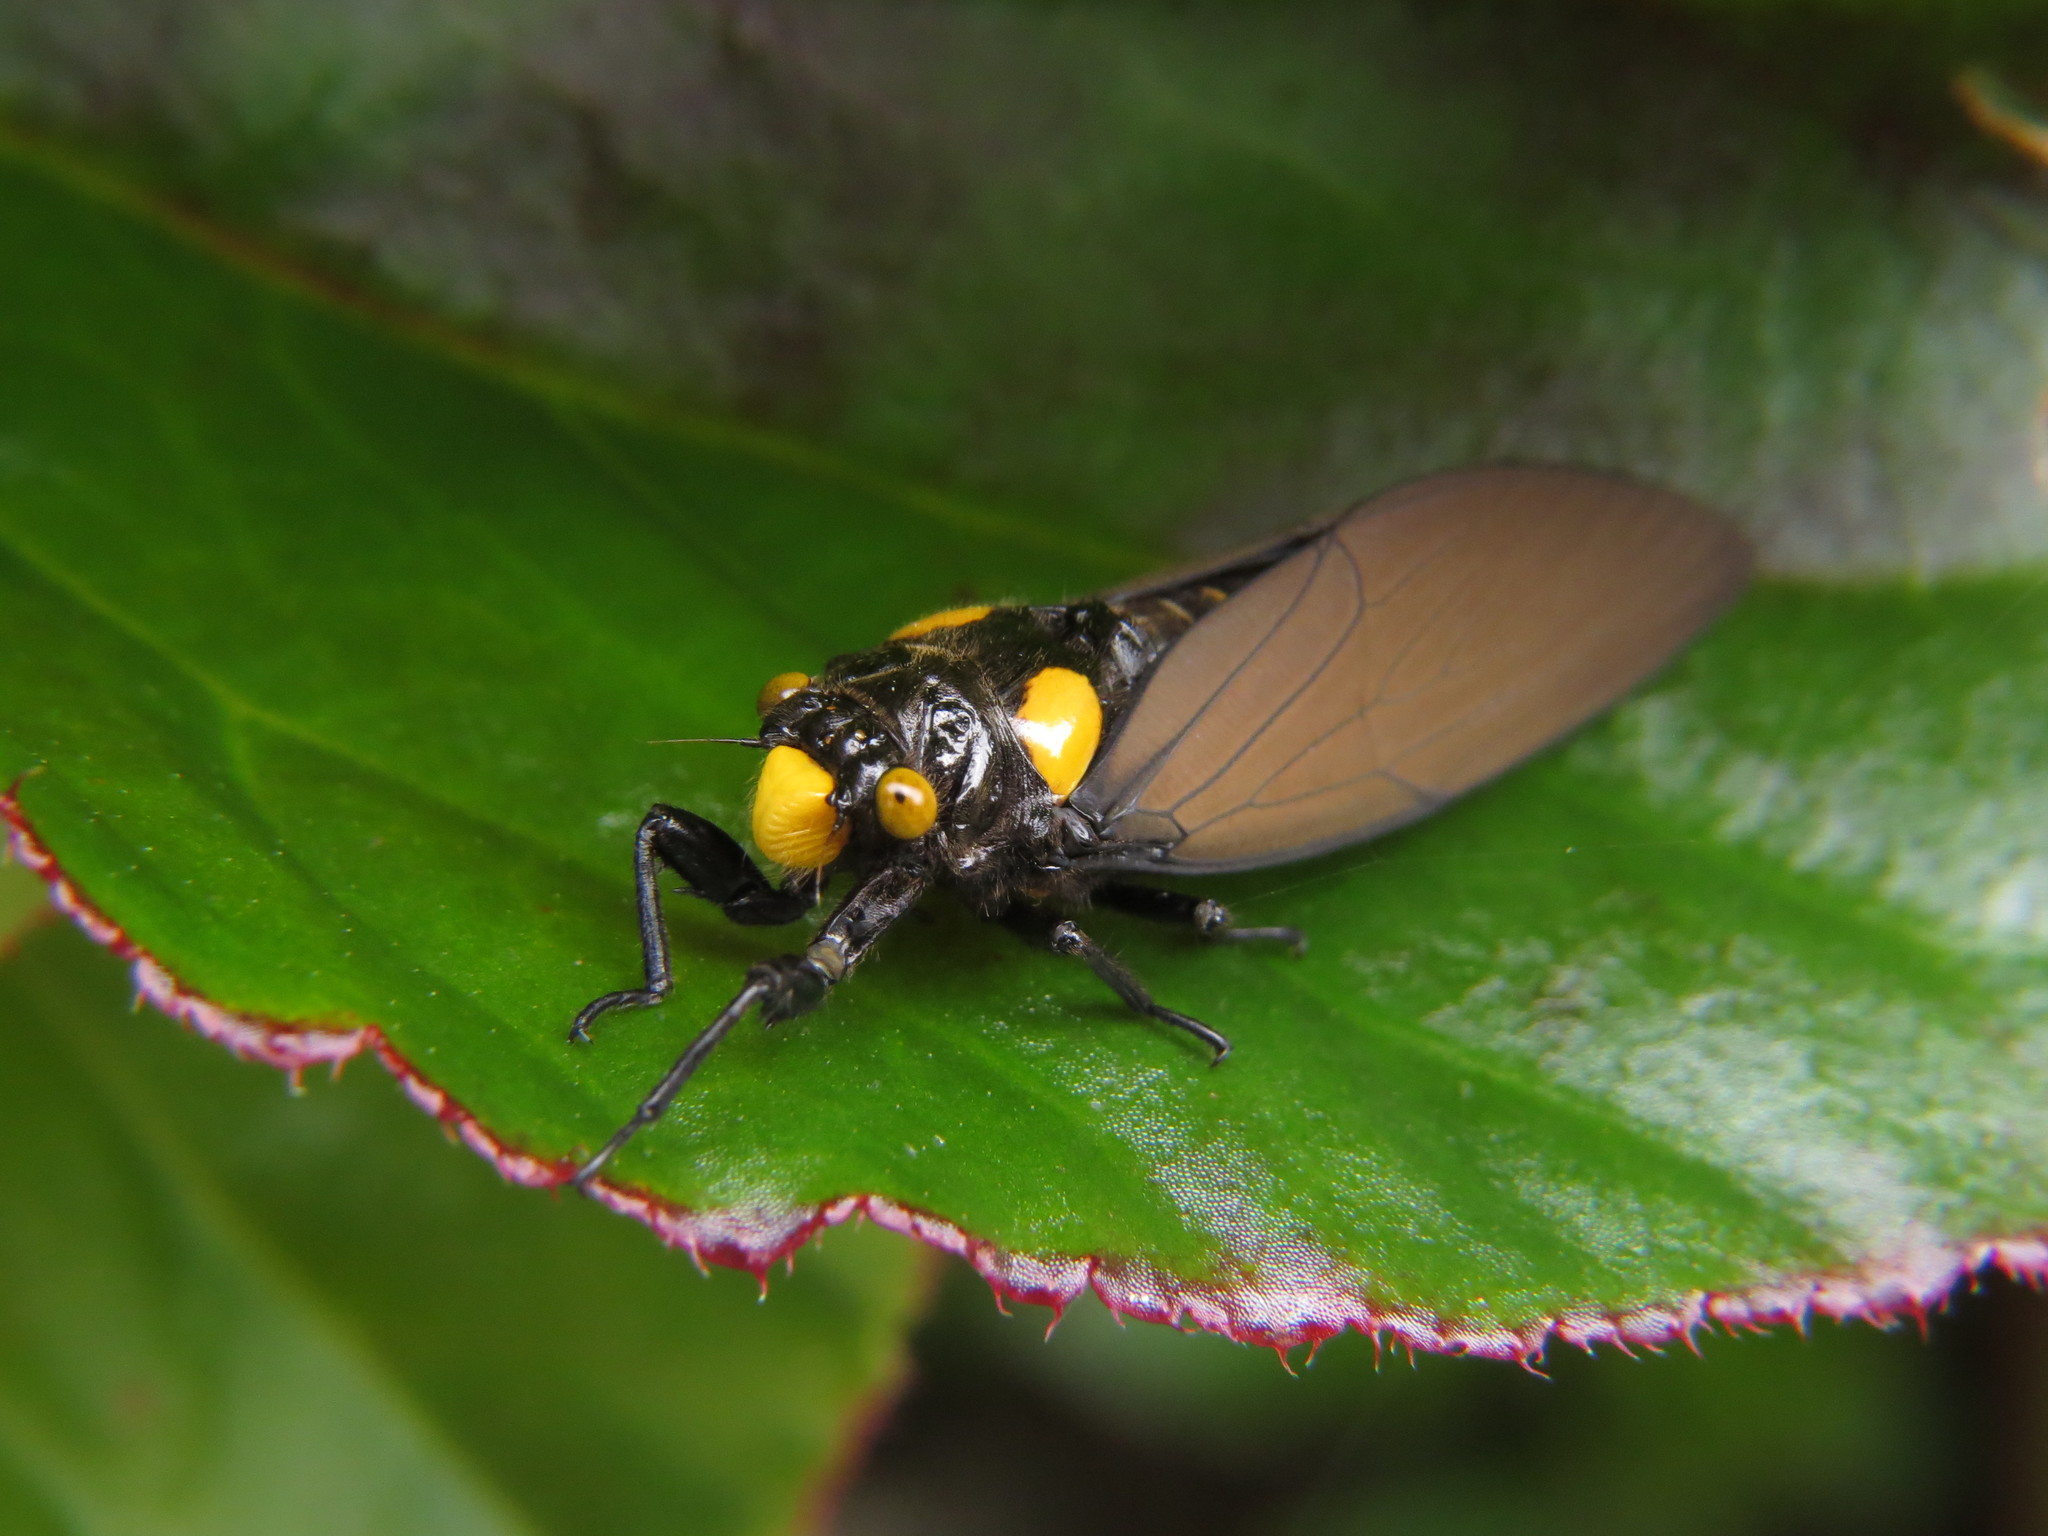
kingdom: Animalia
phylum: Arthropoda
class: Insecta
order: Hemiptera
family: Cicadidae
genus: Huechys
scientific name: Huechys fusca
